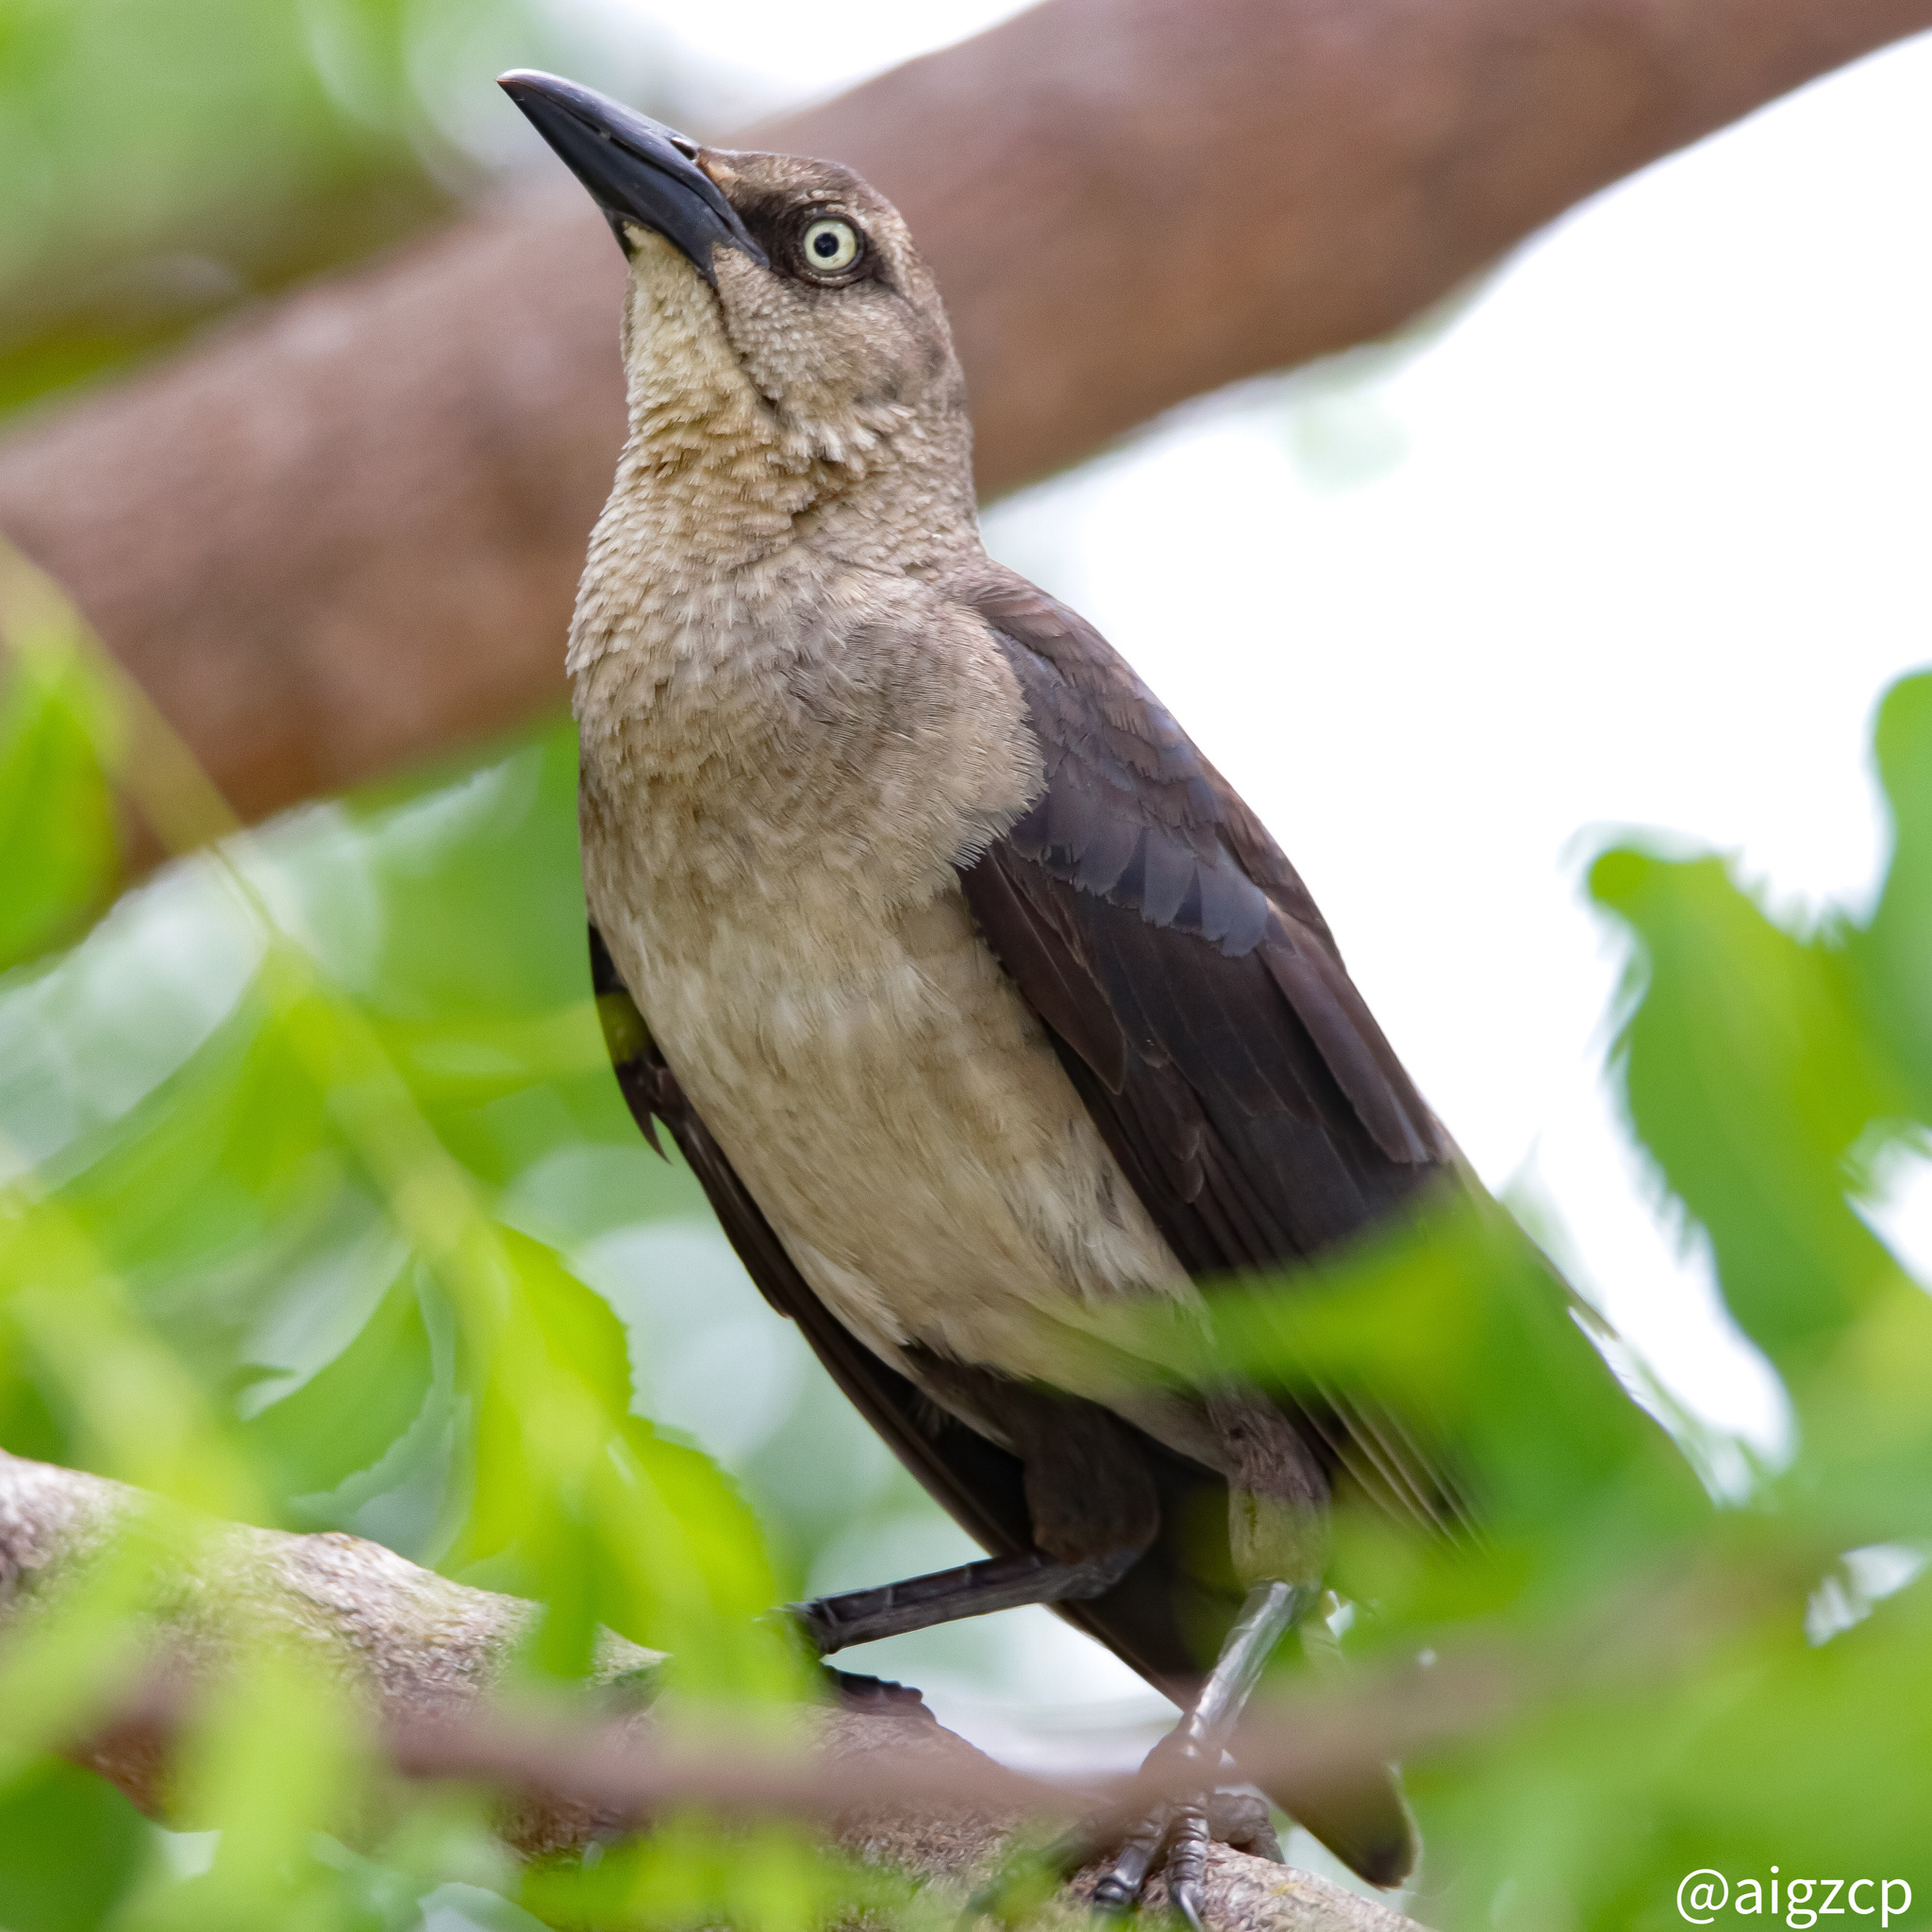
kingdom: Animalia
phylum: Chordata
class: Aves
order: Passeriformes
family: Icteridae
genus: Quiscalus
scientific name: Quiscalus mexicanus
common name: Great-tailed grackle
